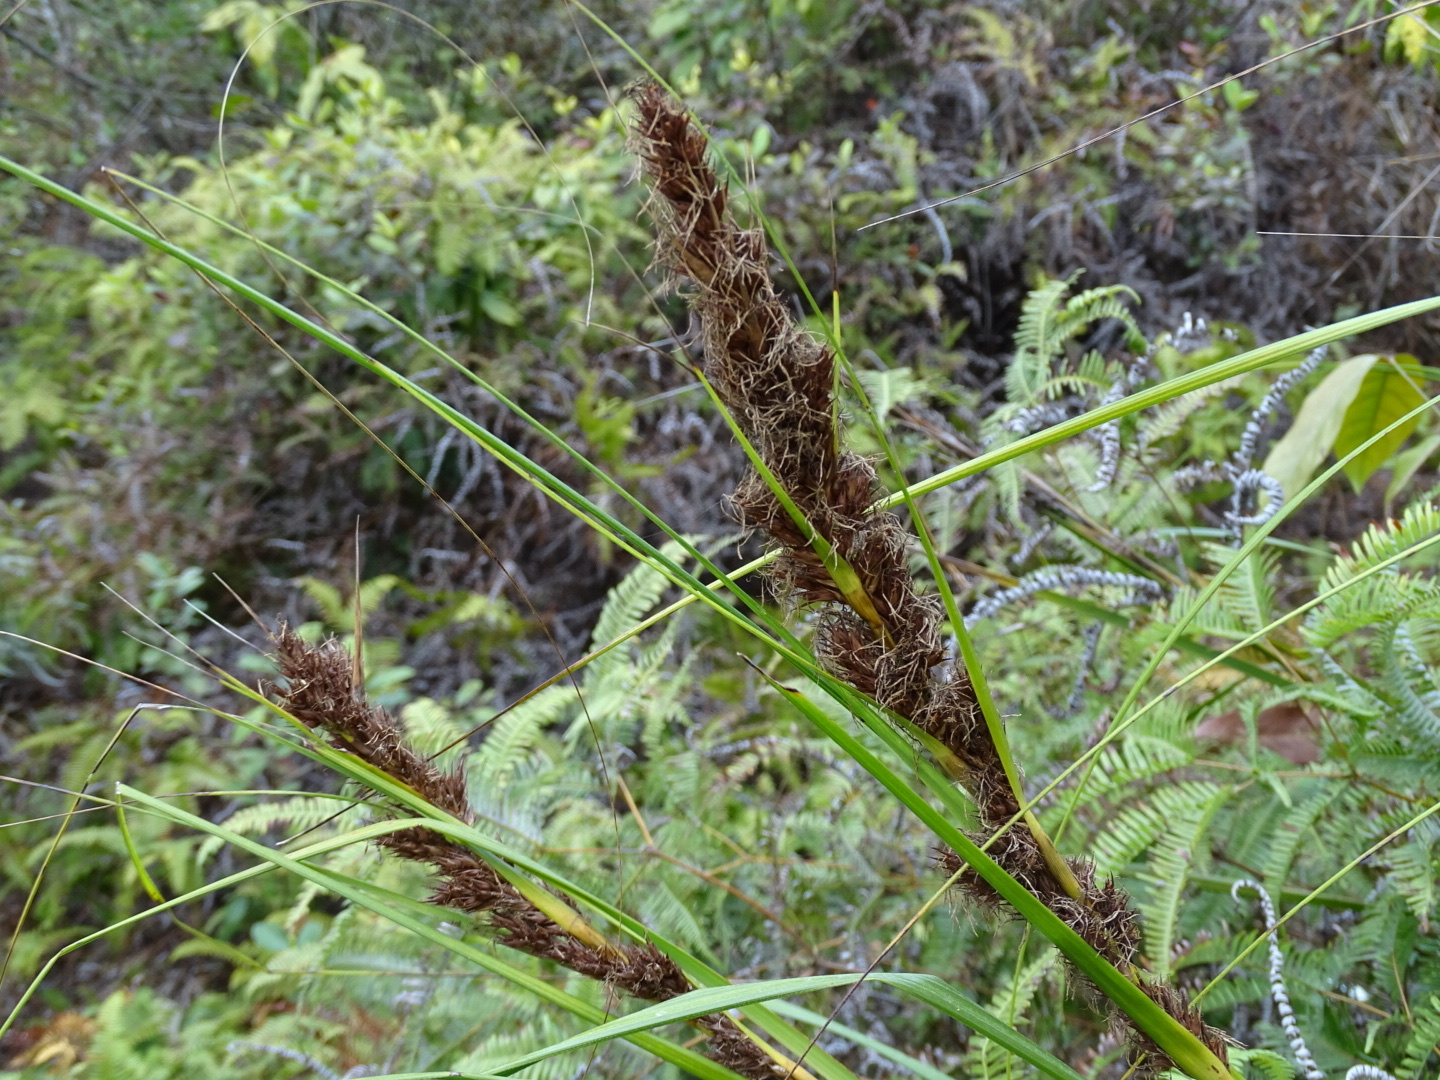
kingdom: Plantae
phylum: Tracheophyta
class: Liliopsida
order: Poales
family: Cyperaceae
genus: Gahnia
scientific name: Gahnia tristis
